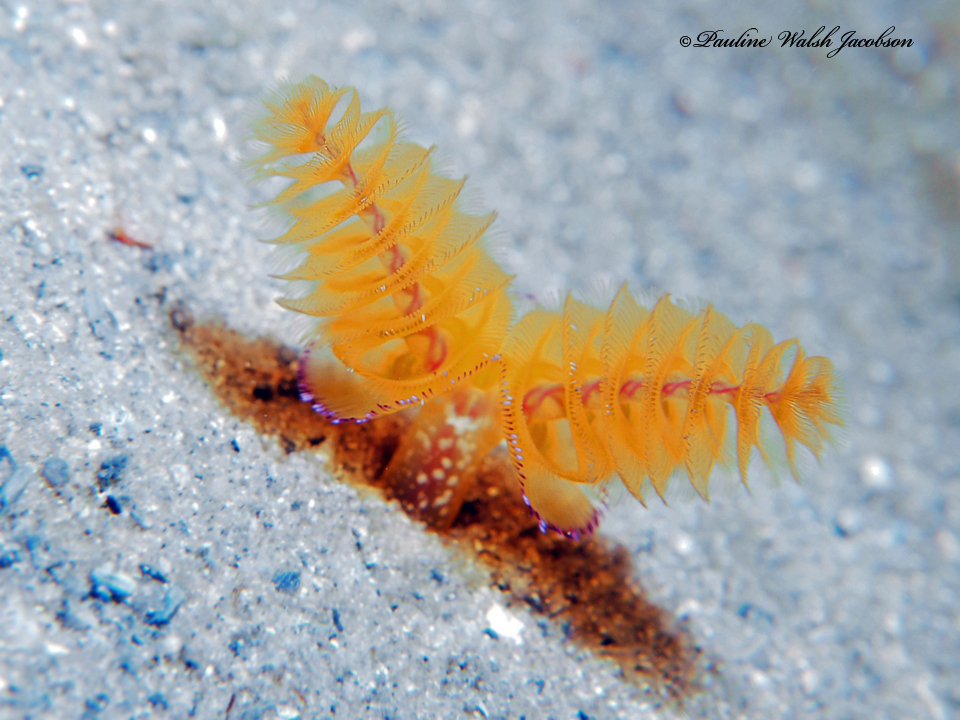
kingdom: Animalia
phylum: Phoronida
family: Phoronidae
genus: Phoronopsis
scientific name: Phoronopsis californica
